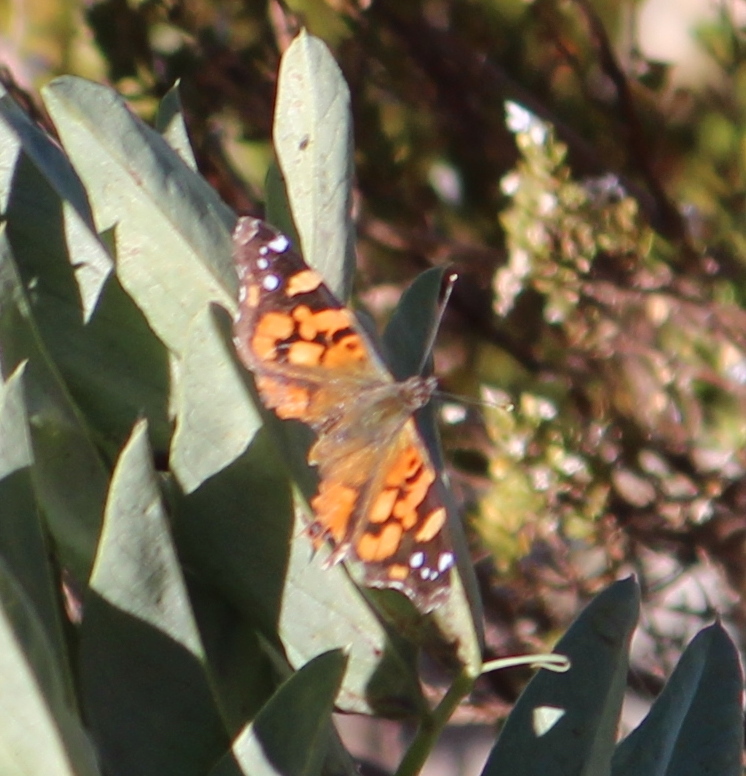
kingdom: Animalia
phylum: Arthropoda
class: Insecta
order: Lepidoptera
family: Nymphalidae
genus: Vanessa
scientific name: Vanessa carye
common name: Subtropical lady
